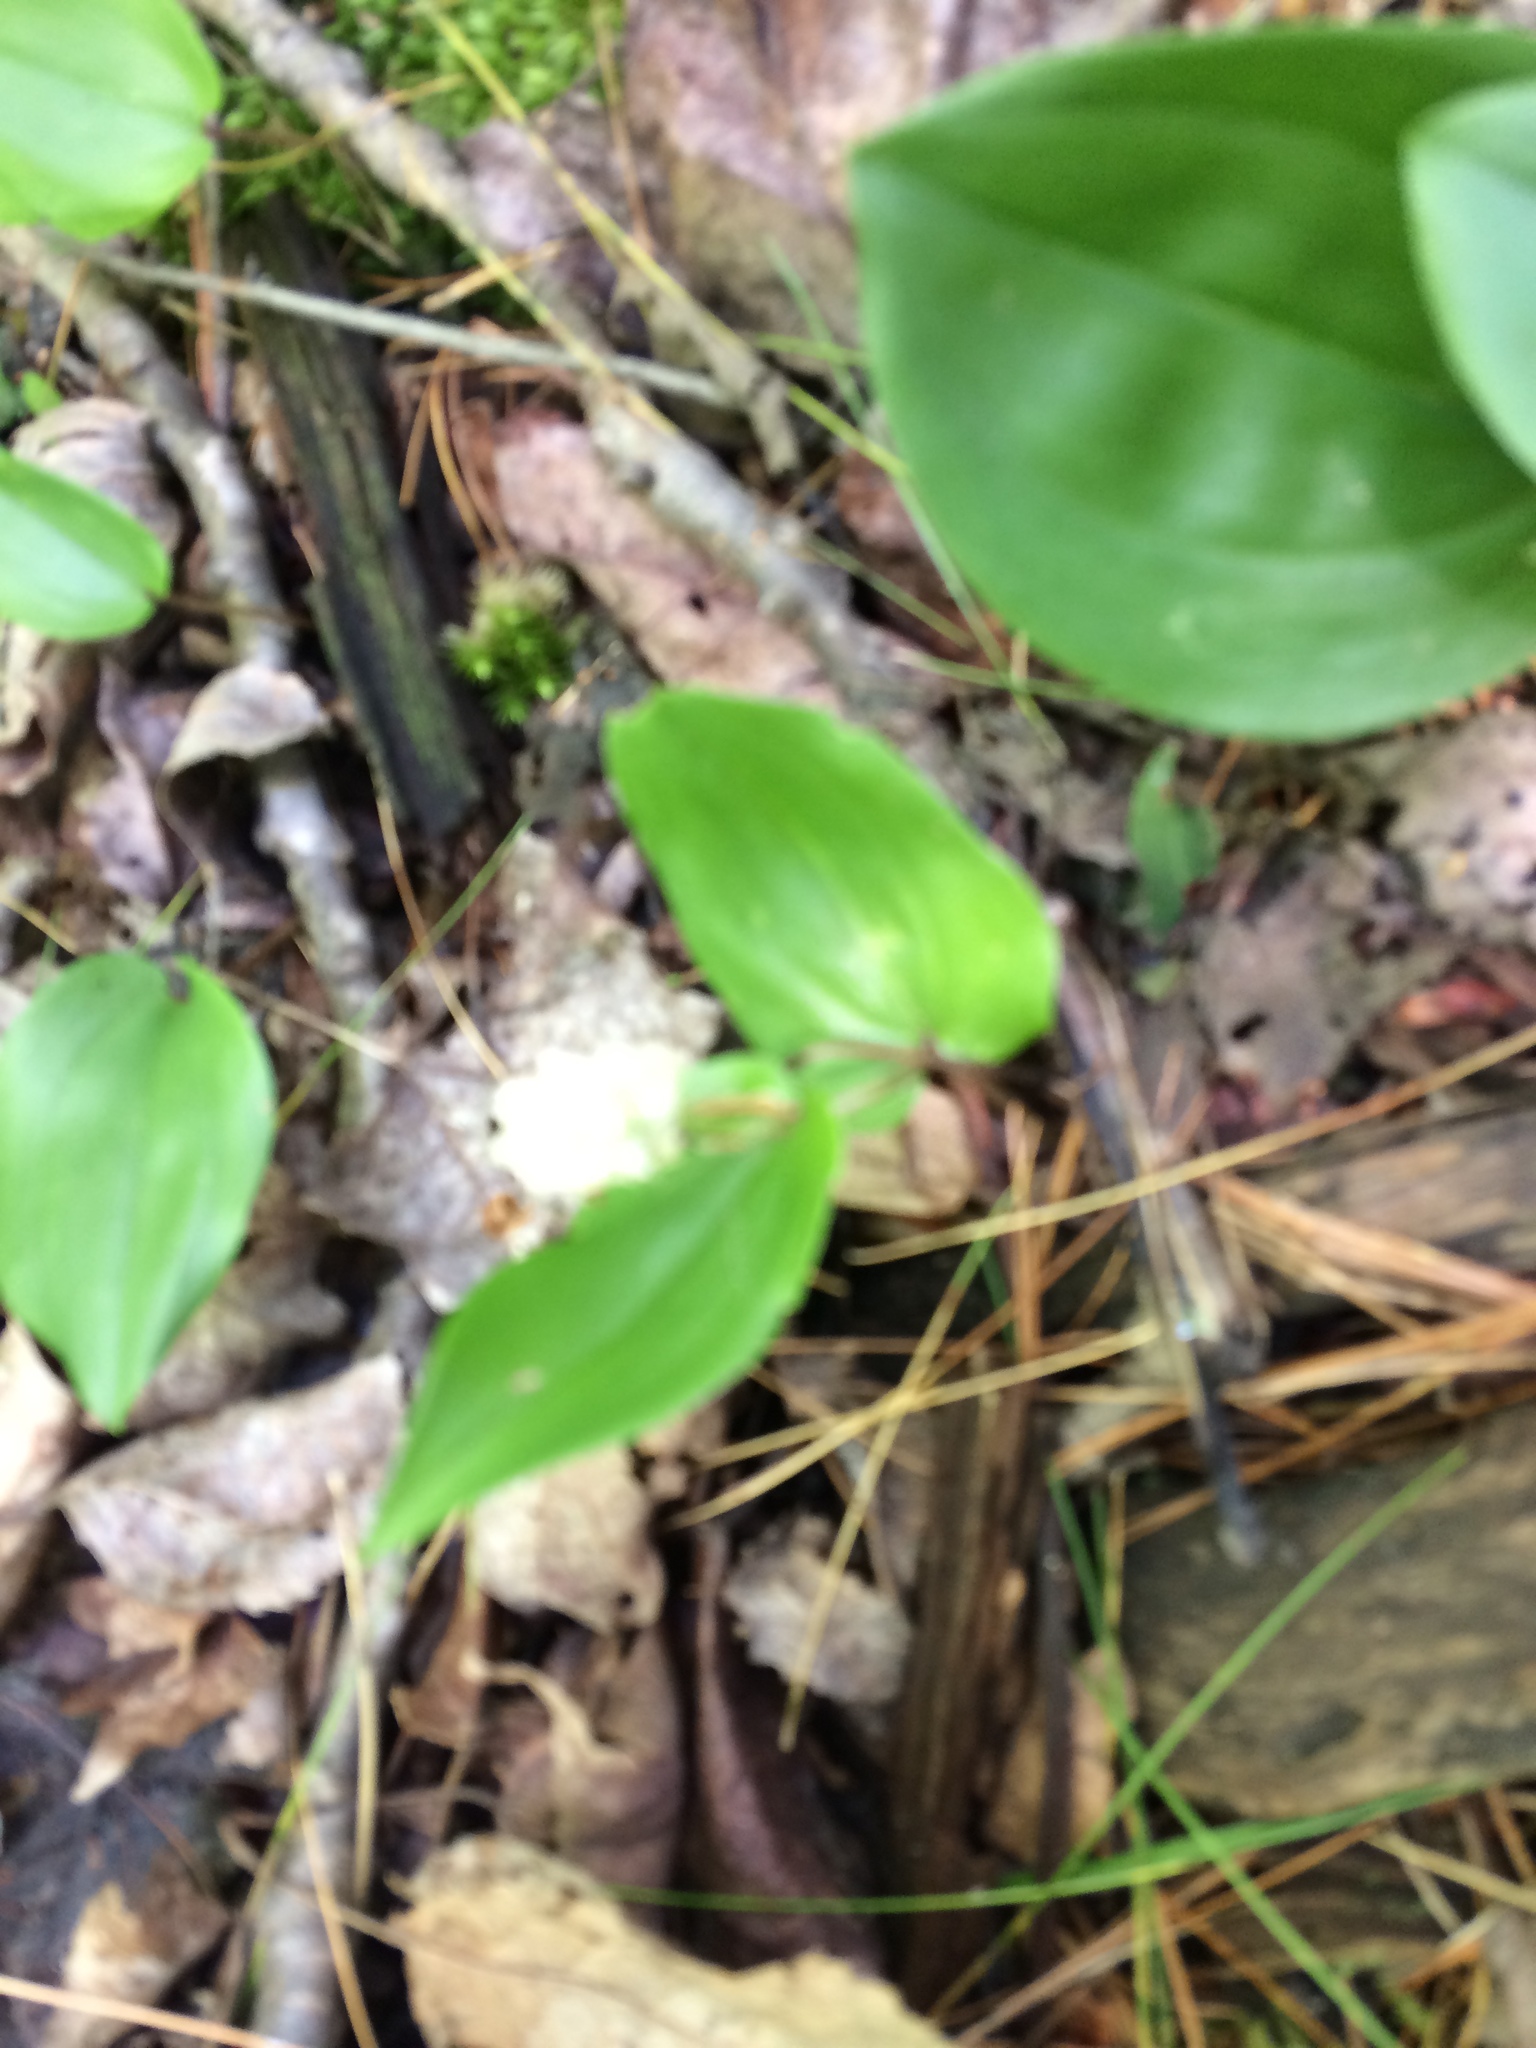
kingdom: Plantae
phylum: Tracheophyta
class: Liliopsida
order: Asparagales
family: Asparagaceae
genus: Maianthemum
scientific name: Maianthemum canadense
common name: False lily-of-the-valley
